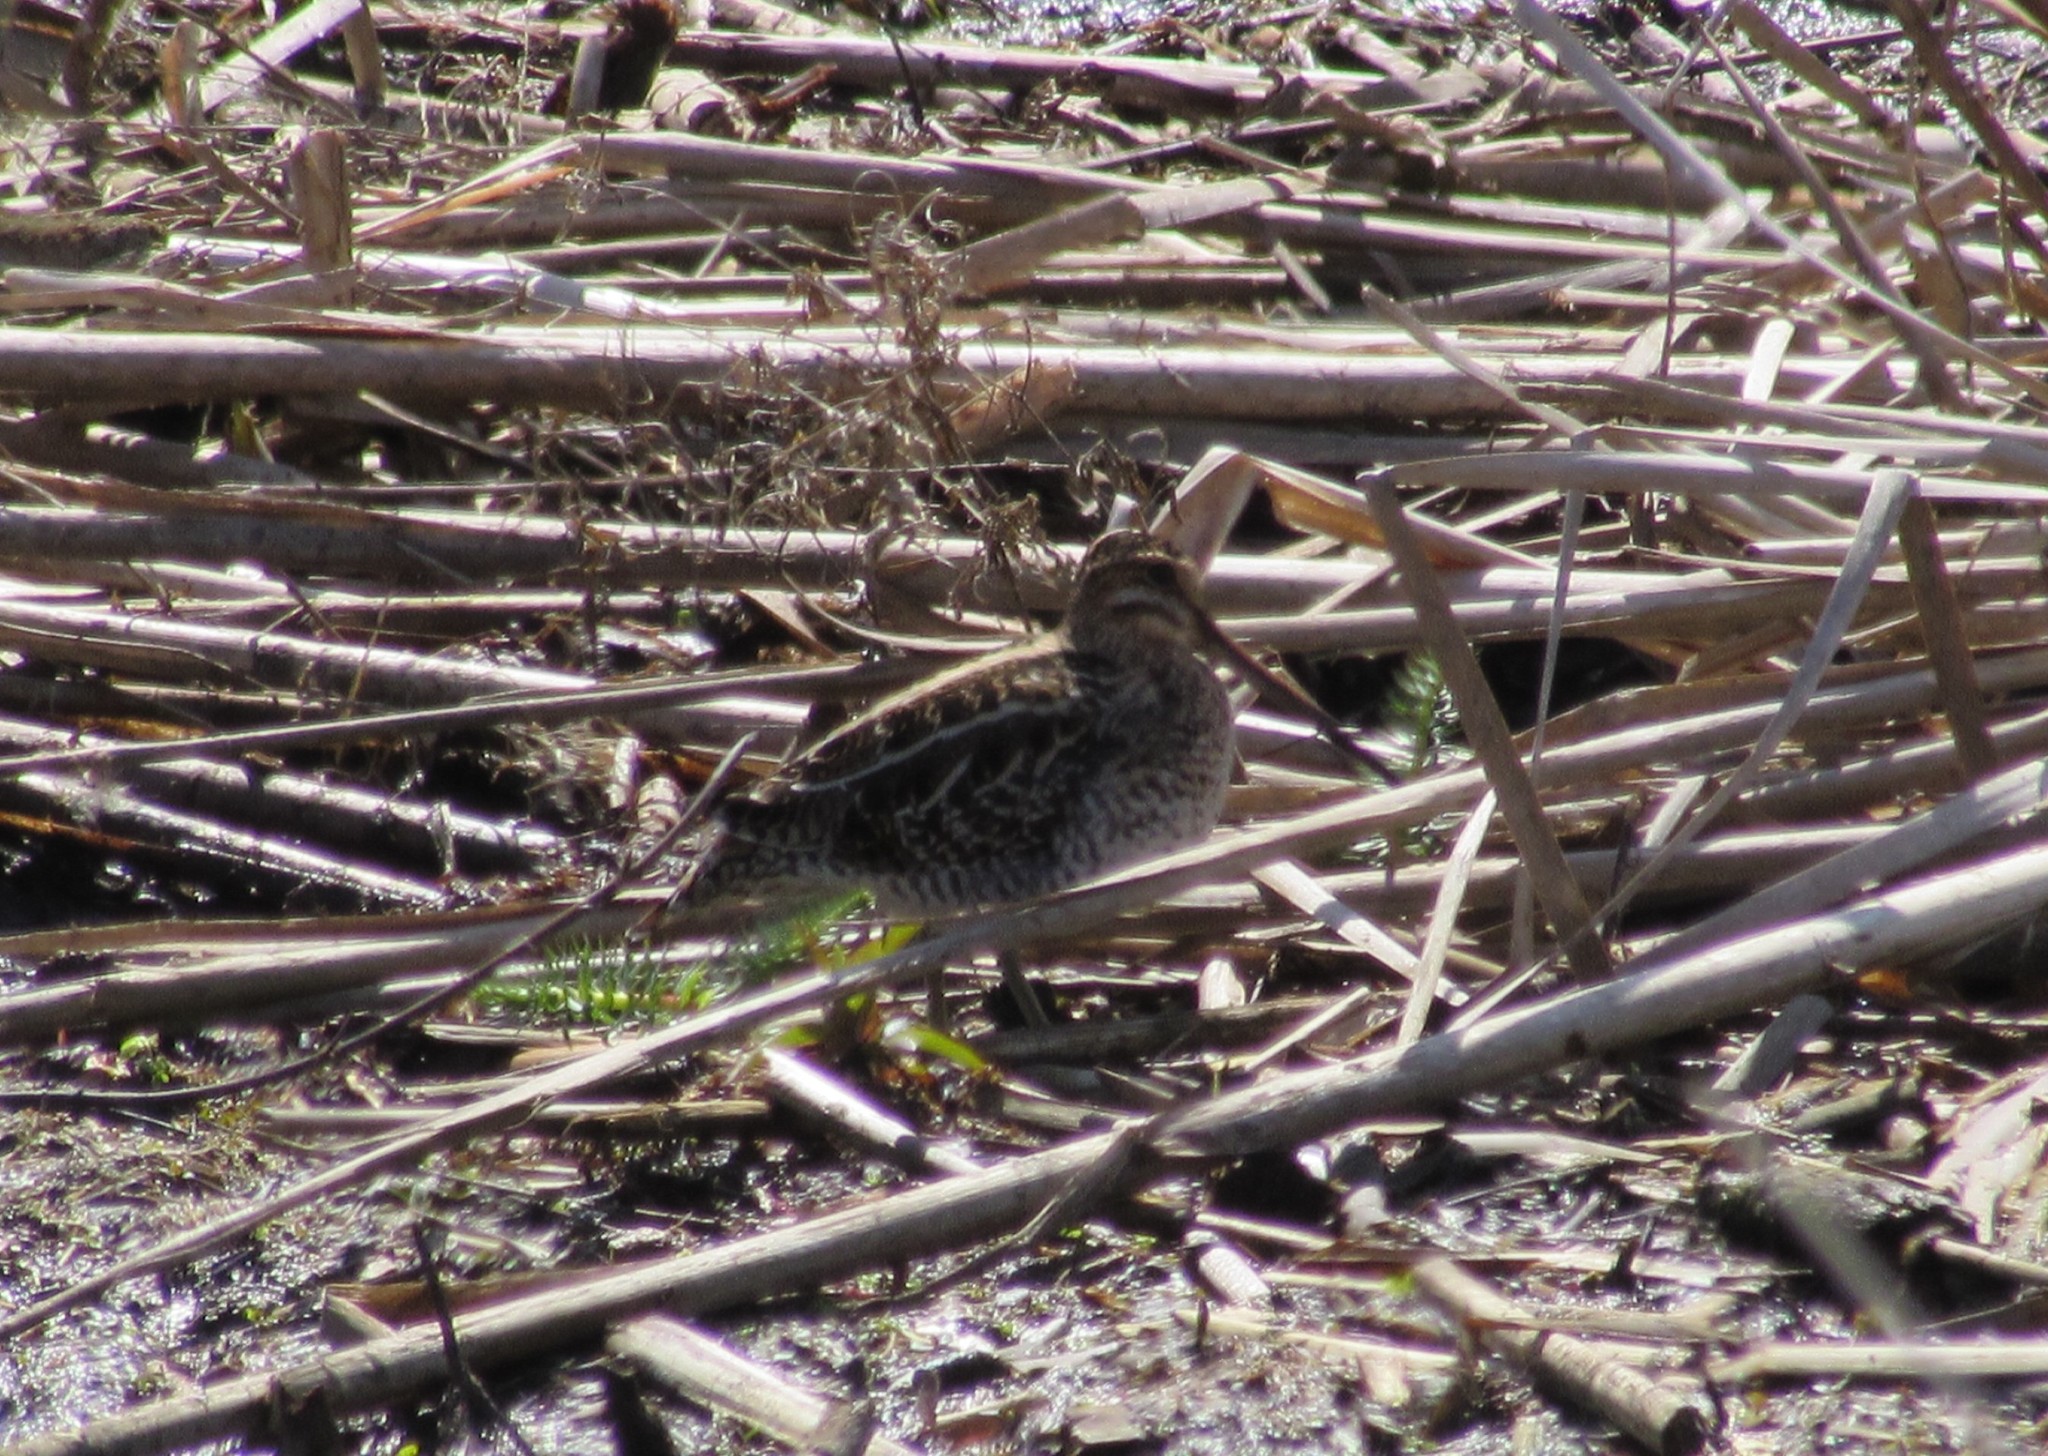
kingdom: Animalia
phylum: Chordata
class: Aves
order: Charadriiformes
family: Scolopacidae
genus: Gallinago
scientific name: Gallinago delicata
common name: Wilson's snipe
